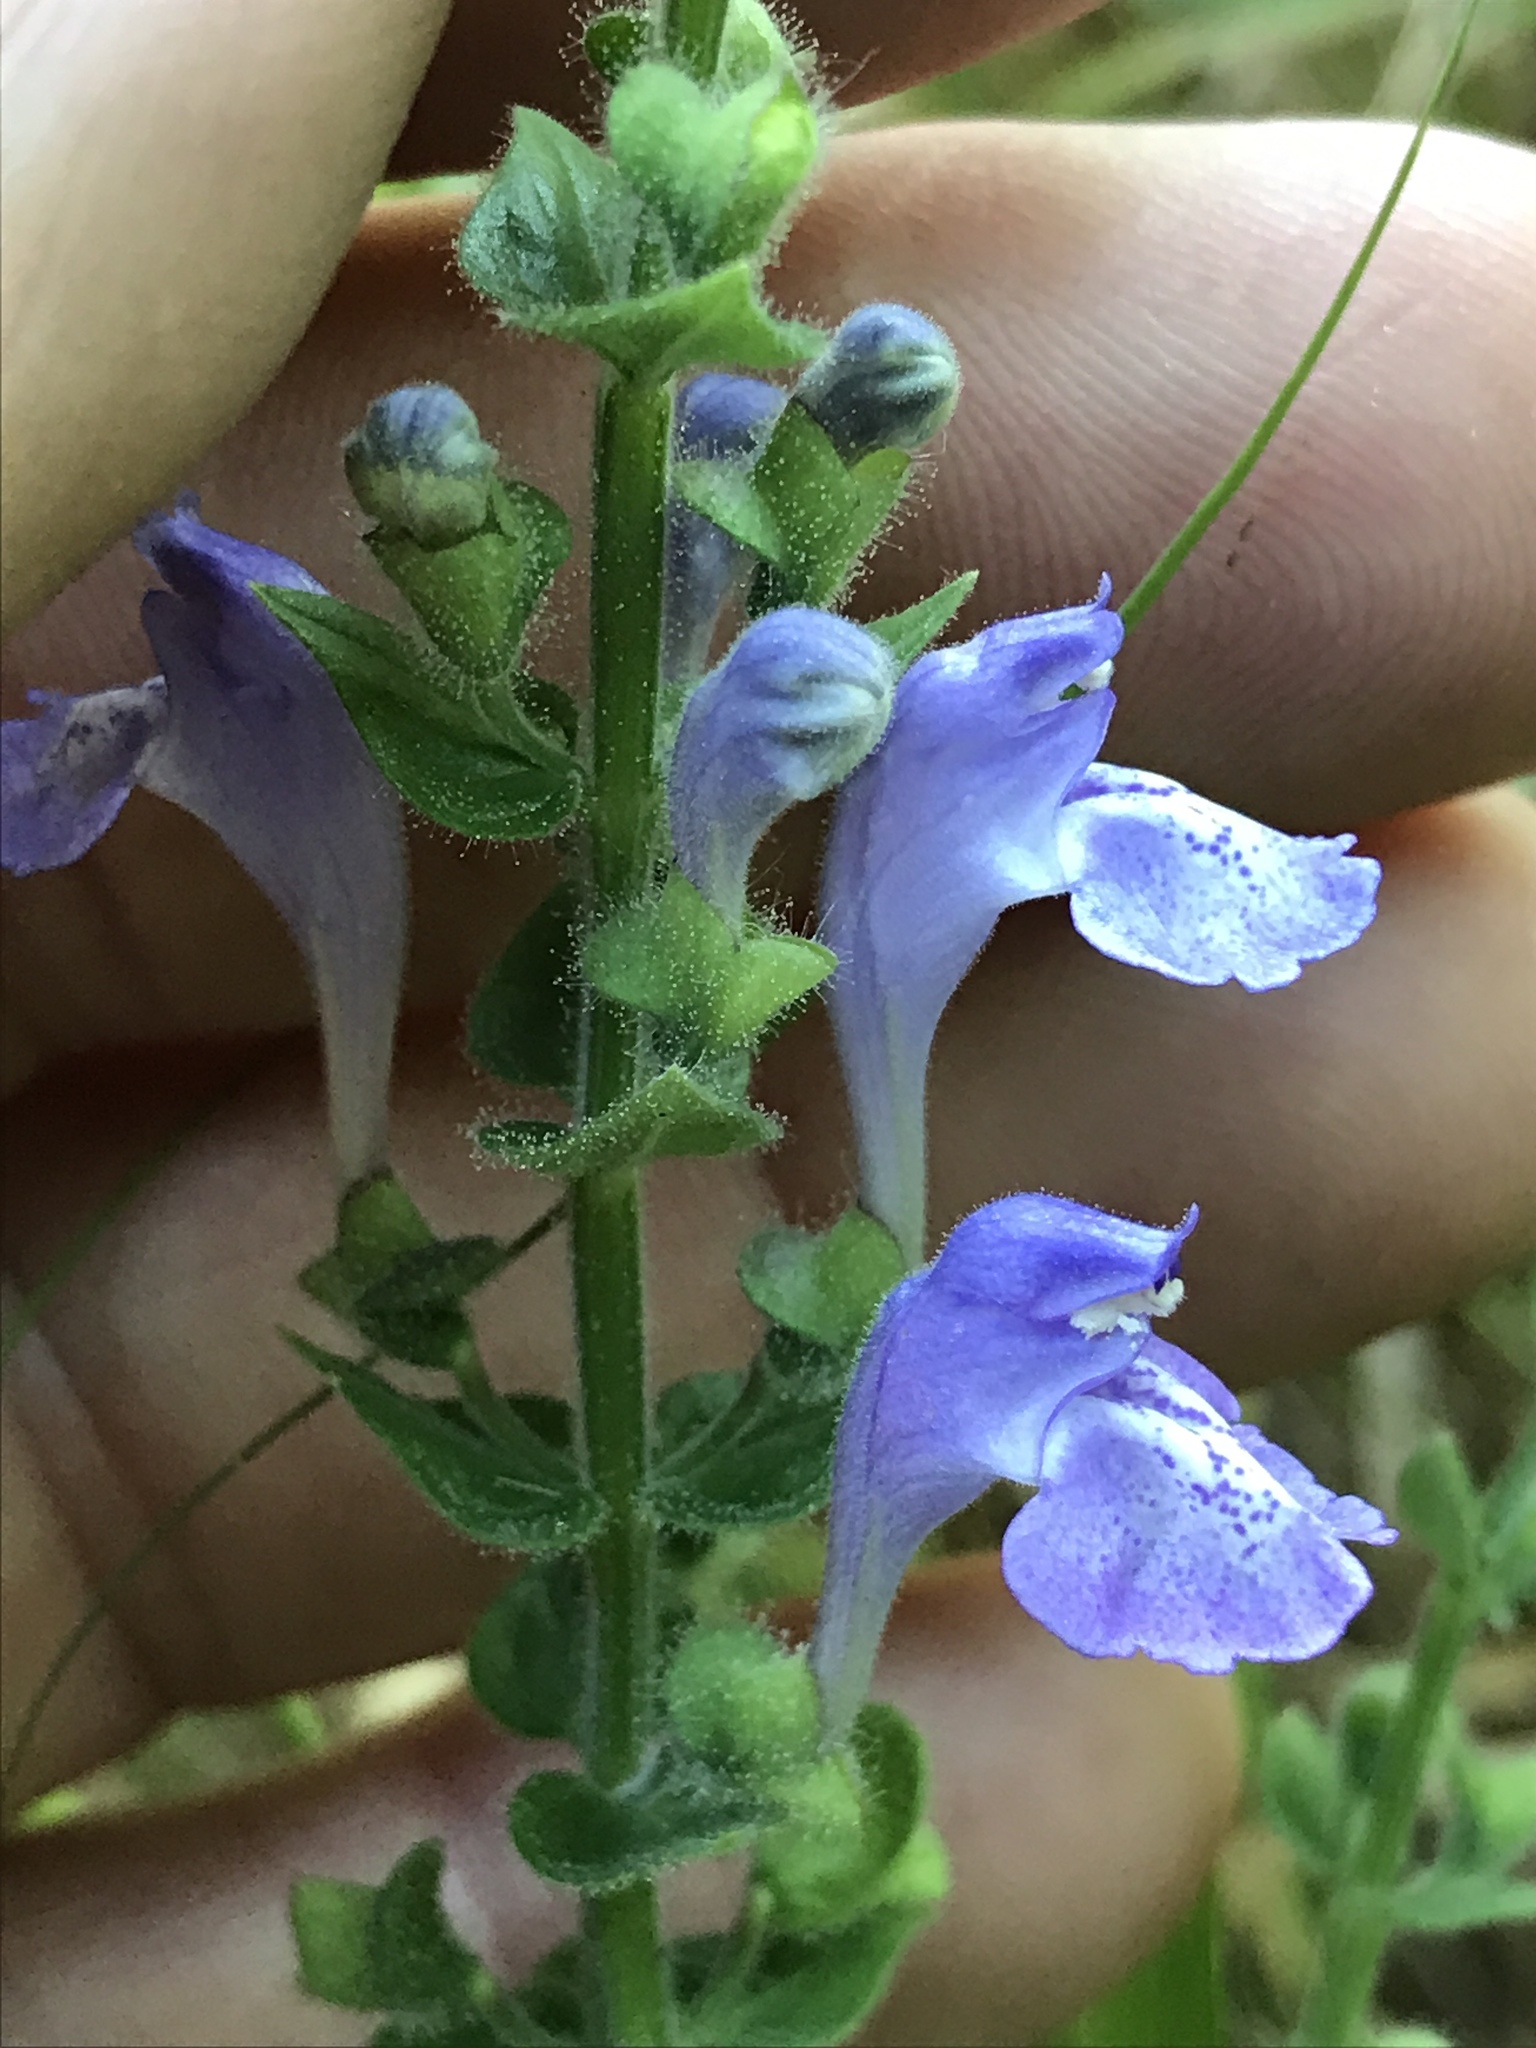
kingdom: Plantae
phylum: Tracheophyta
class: Magnoliopsida
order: Lamiales
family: Lamiaceae
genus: Scutellaria
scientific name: Scutellaria ovata
